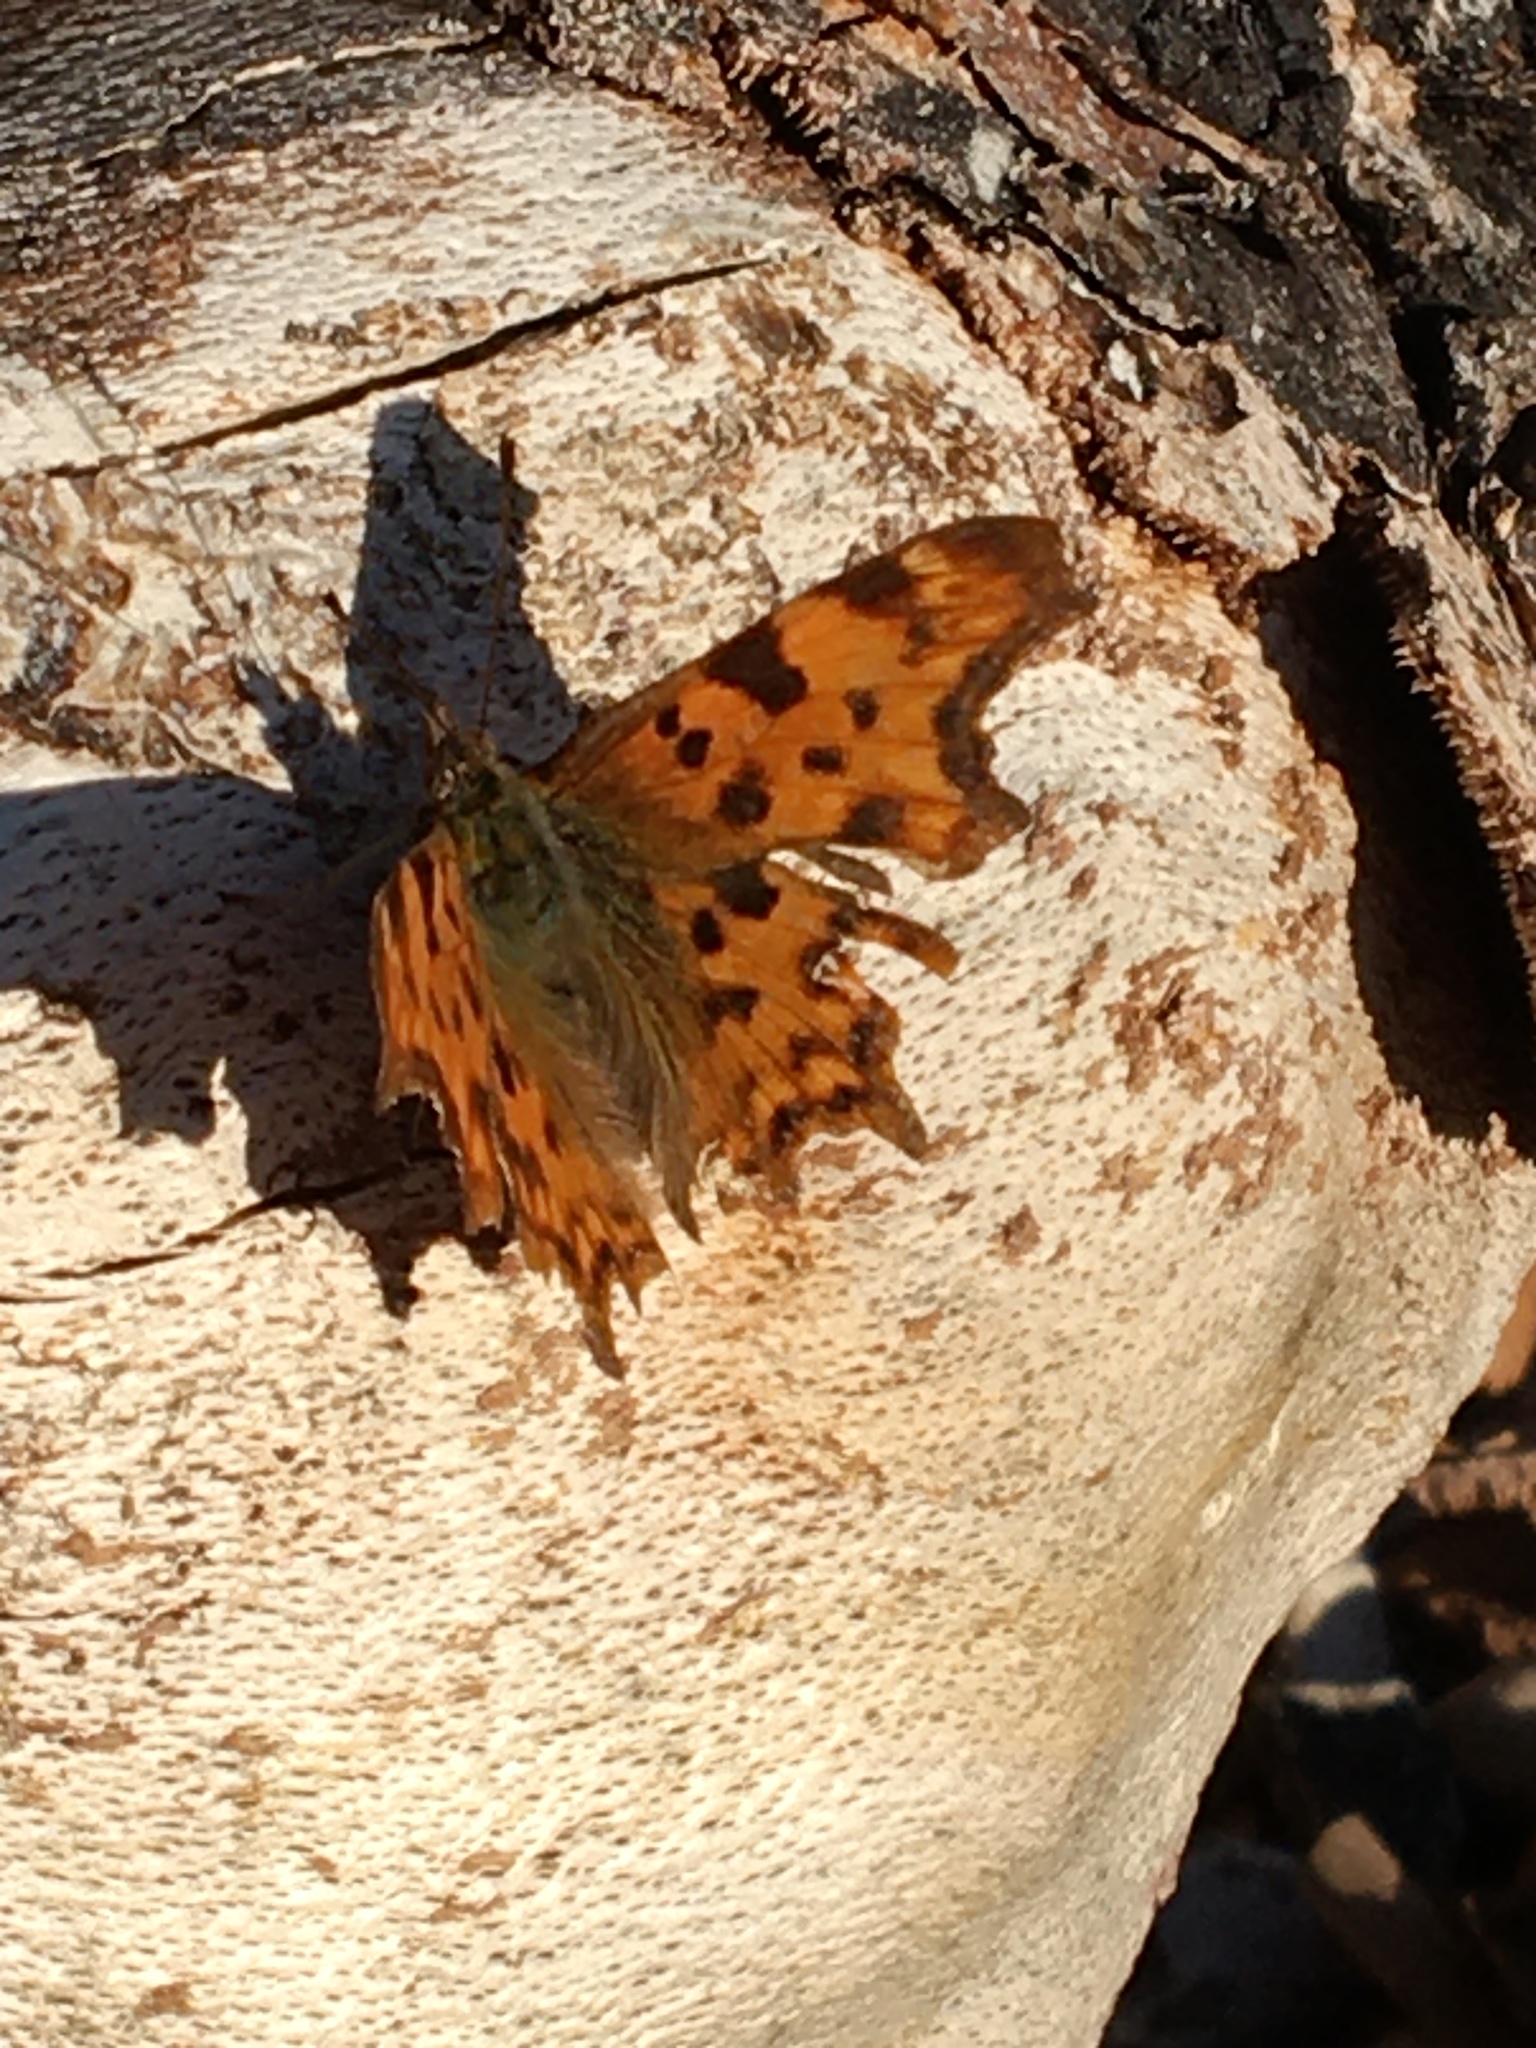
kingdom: Animalia
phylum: Arthropoda
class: Insecta
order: Lepidoptera
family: Nymphalidae
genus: Polygonia
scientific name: Polygonia c-album
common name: Comma
